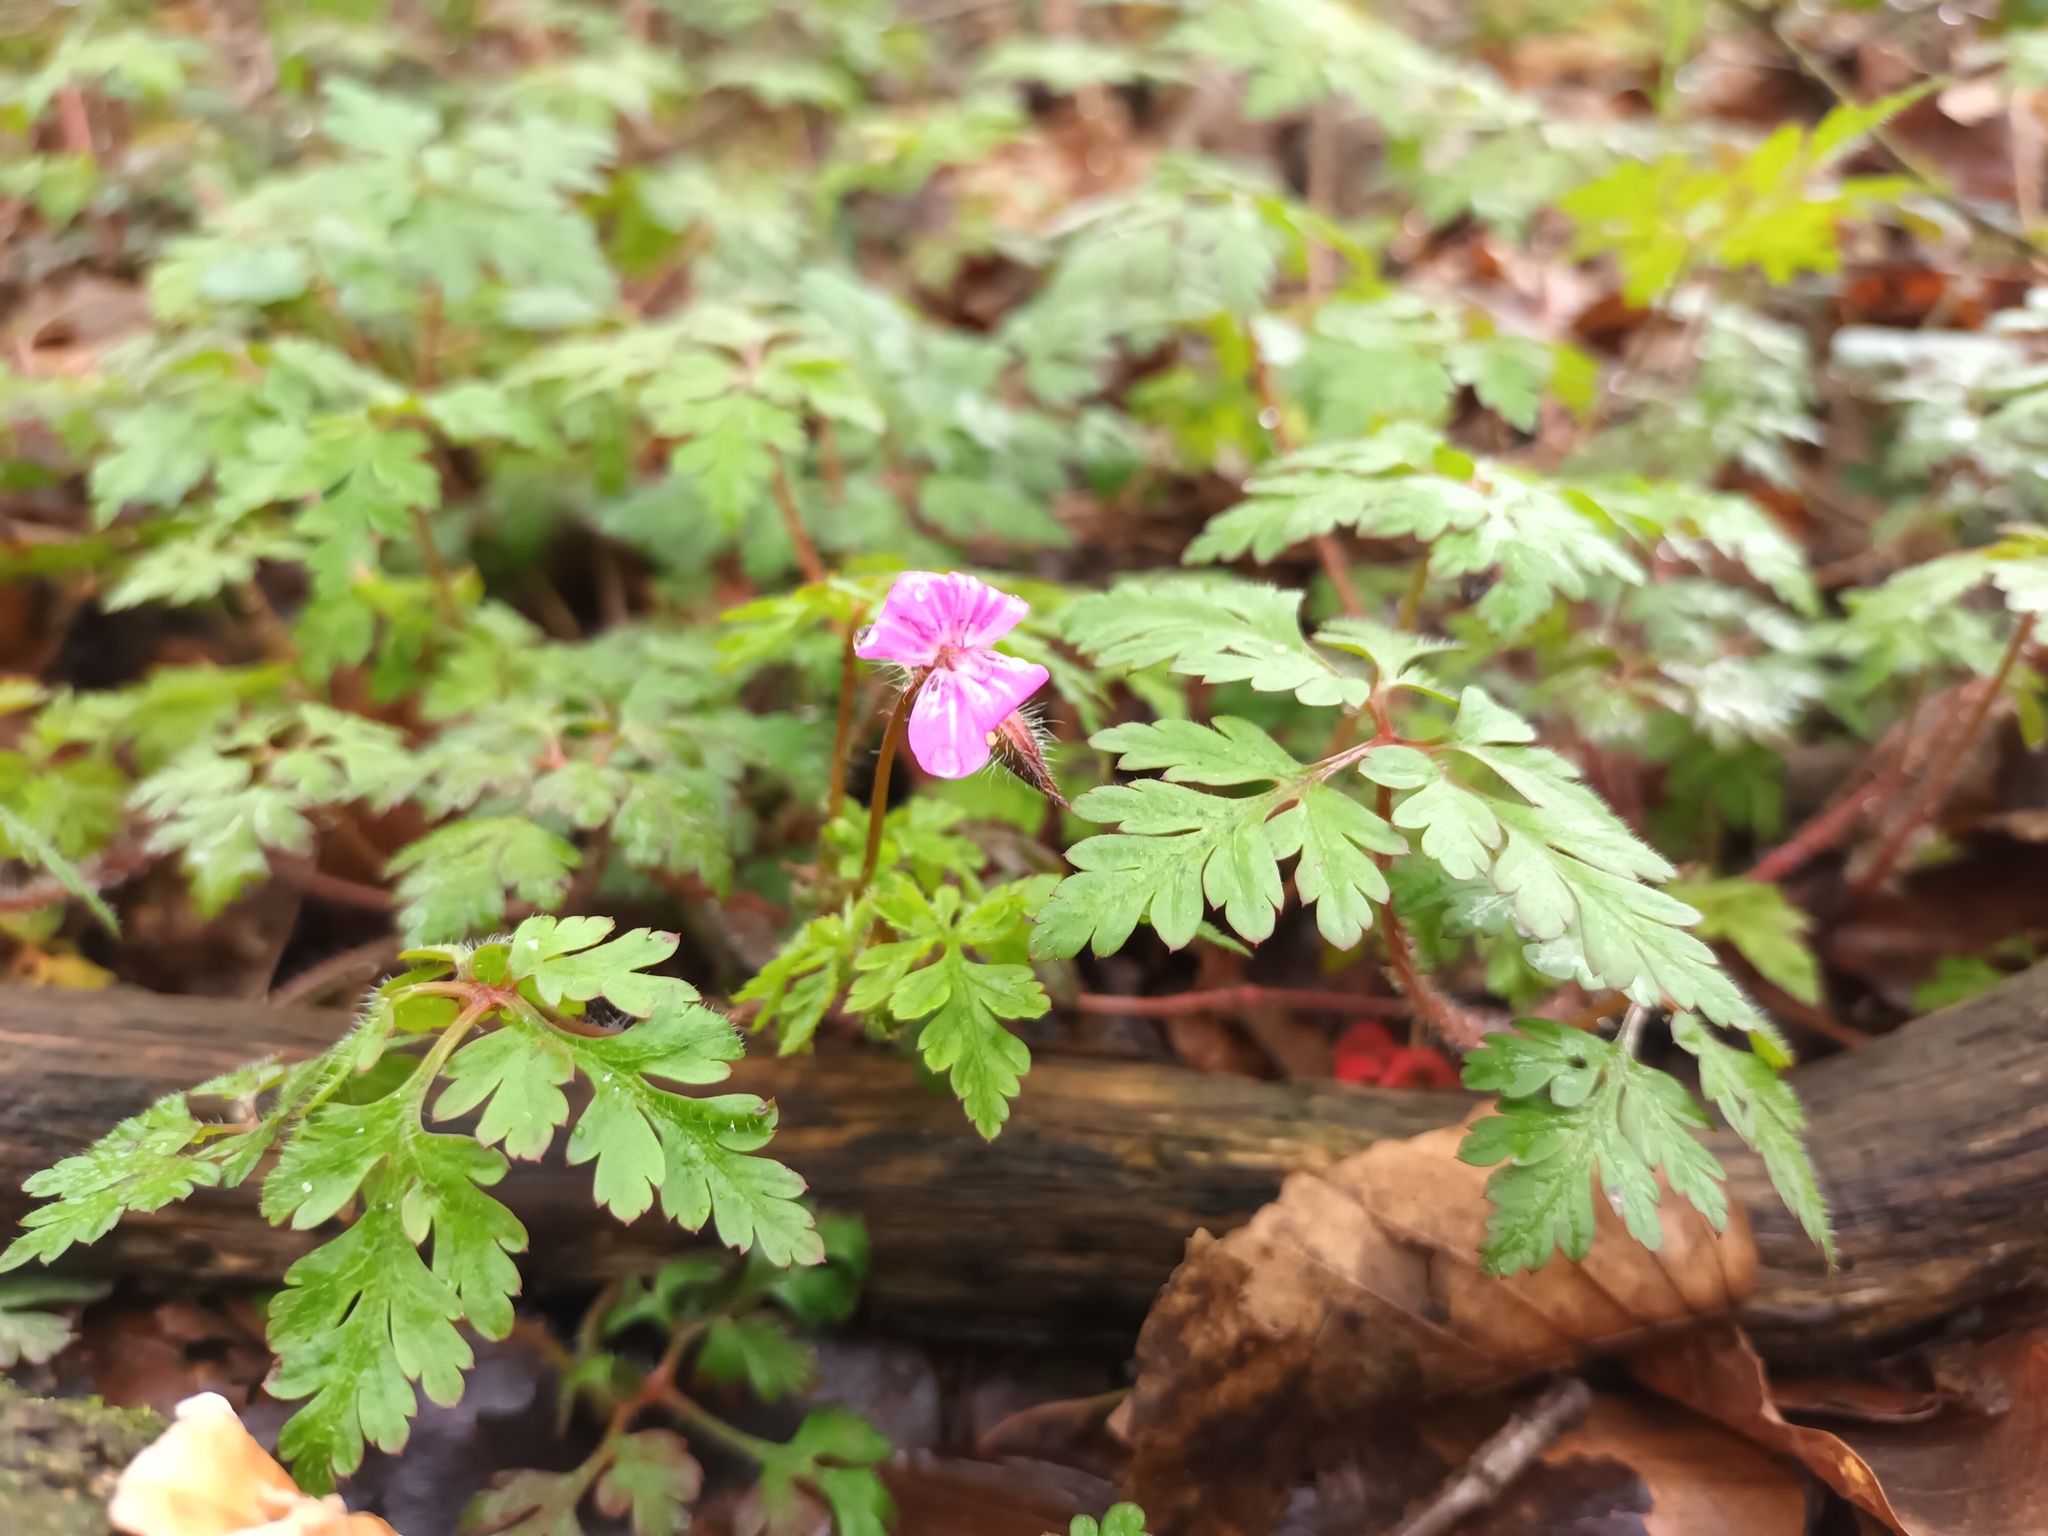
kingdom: Plantae
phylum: Tracheophyta
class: Magnoliopsida
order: Geraniales
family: Geraniaceae
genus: Geranium
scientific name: Geranium robertianum
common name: Herb-robert
